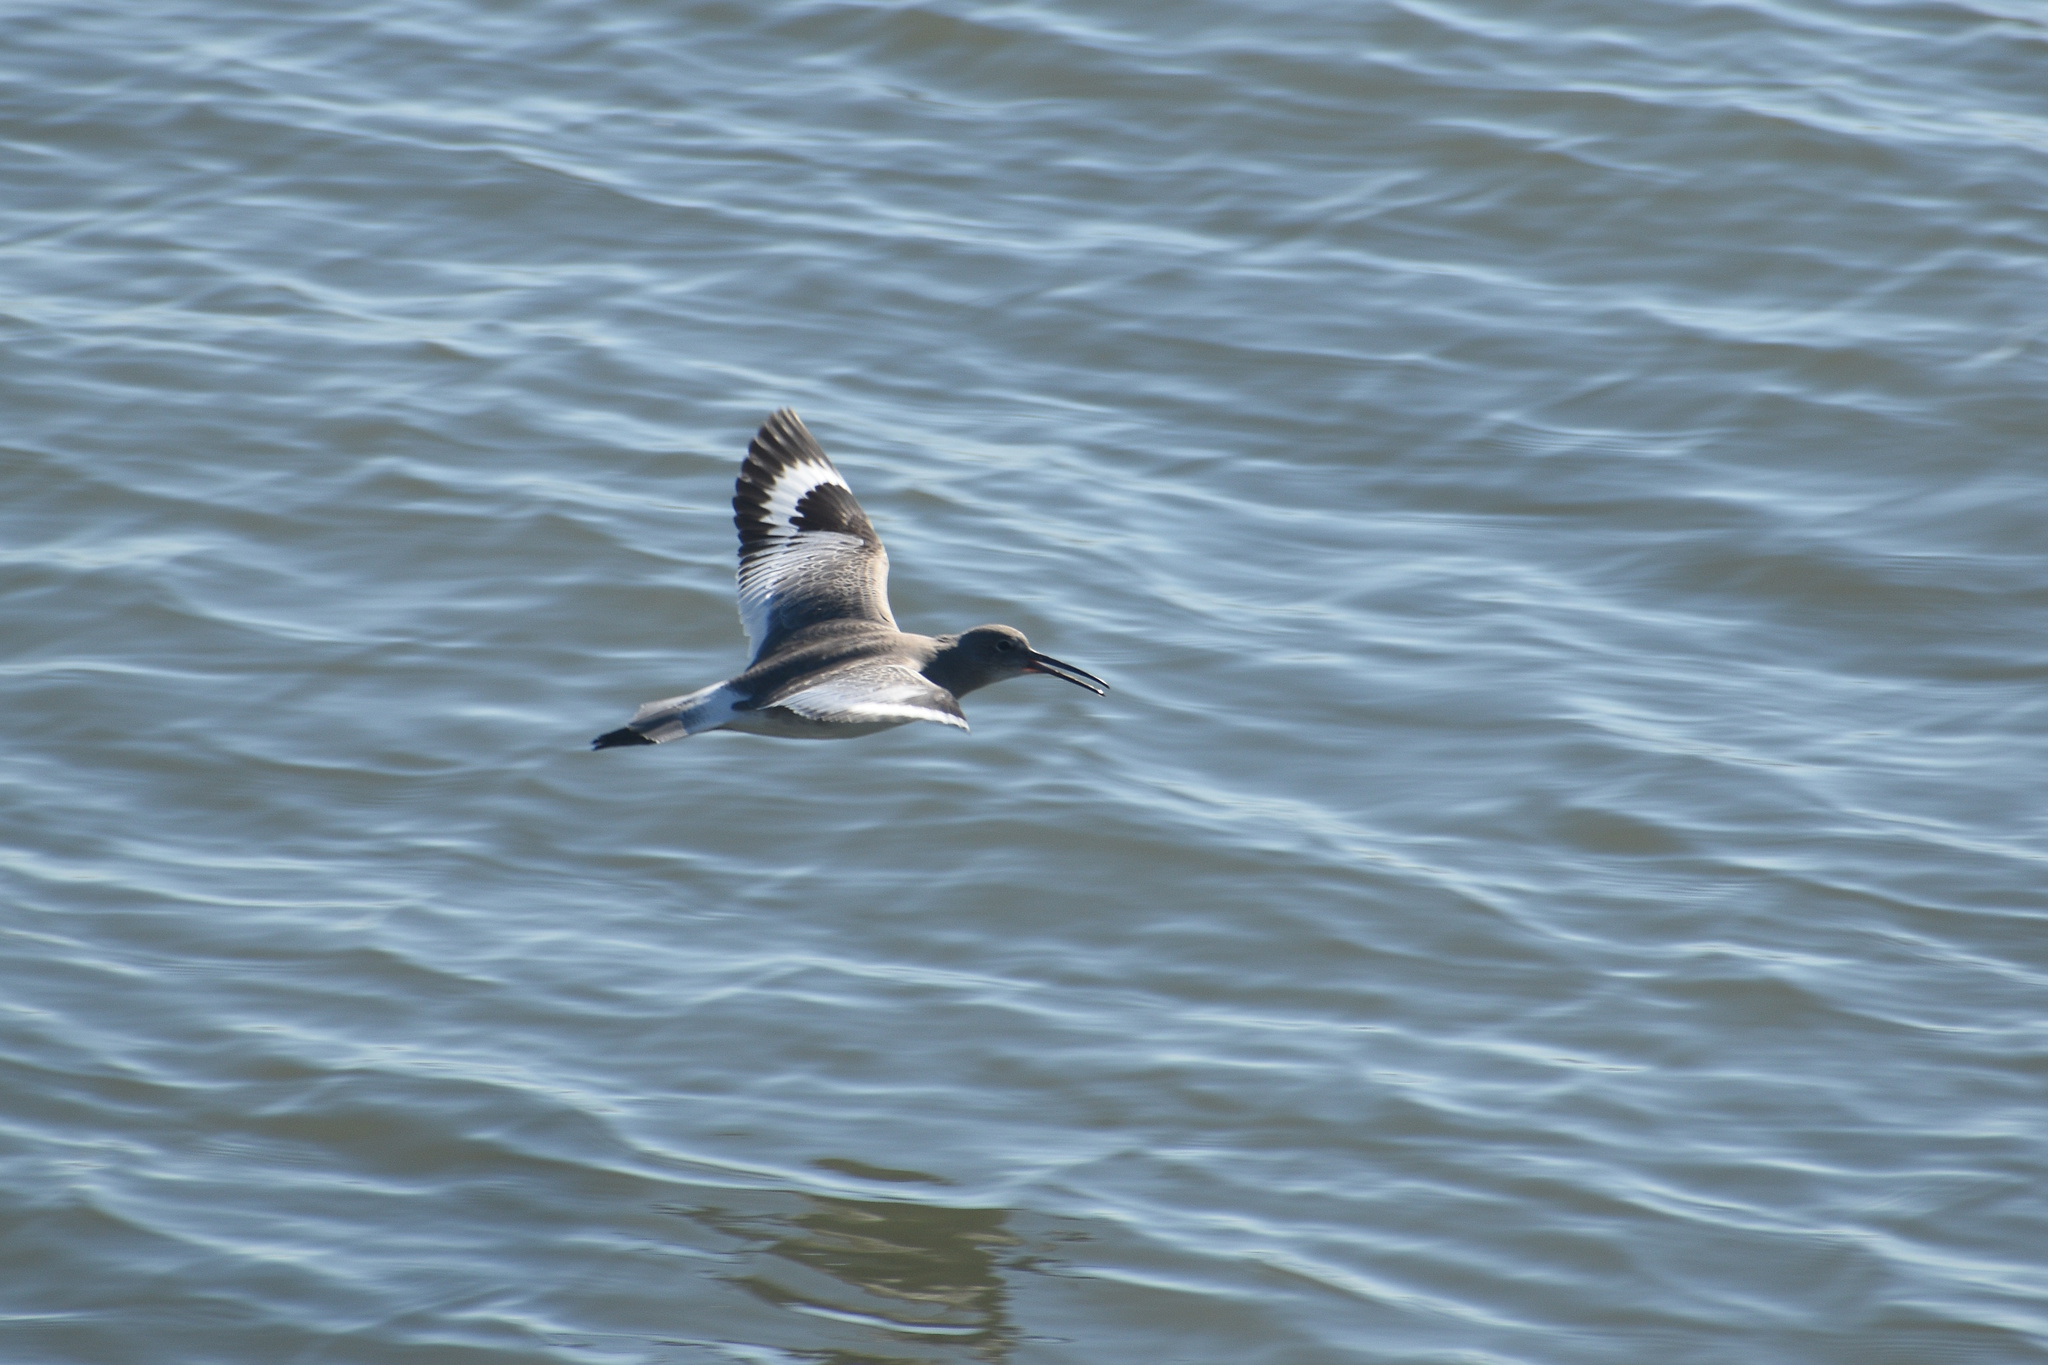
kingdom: Animalia
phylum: Chordata
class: Aves
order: Charadriiformes
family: Scolopacidae
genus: Tringa
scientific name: Tringa semipalmata
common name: Willet
